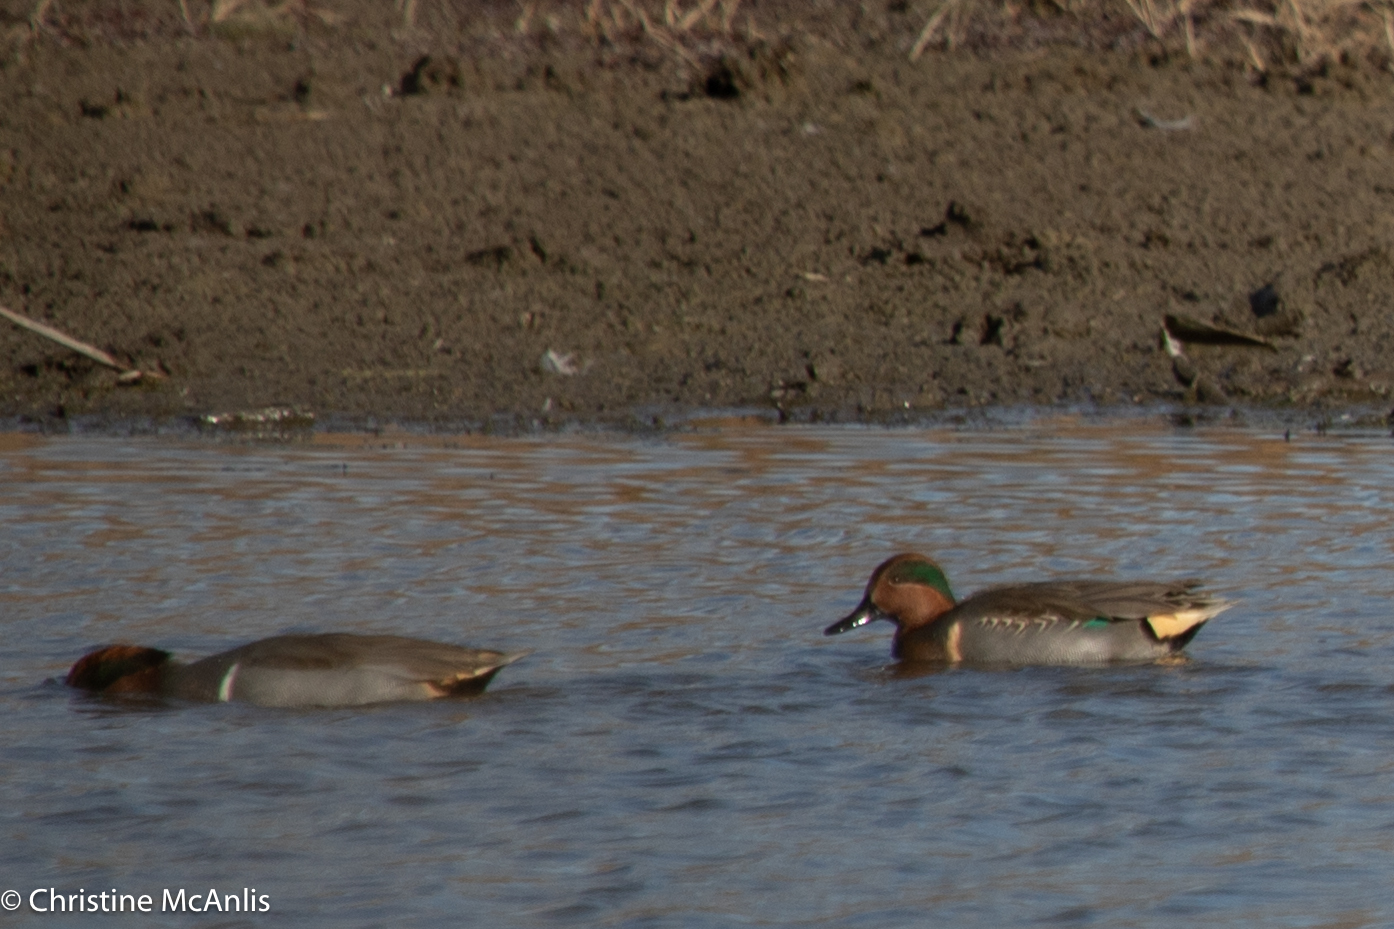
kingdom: Animalia
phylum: Chordata
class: Aves
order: Anseriformes
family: Anatidae
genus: Anas
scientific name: Anas crecca
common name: Eurasian teal
